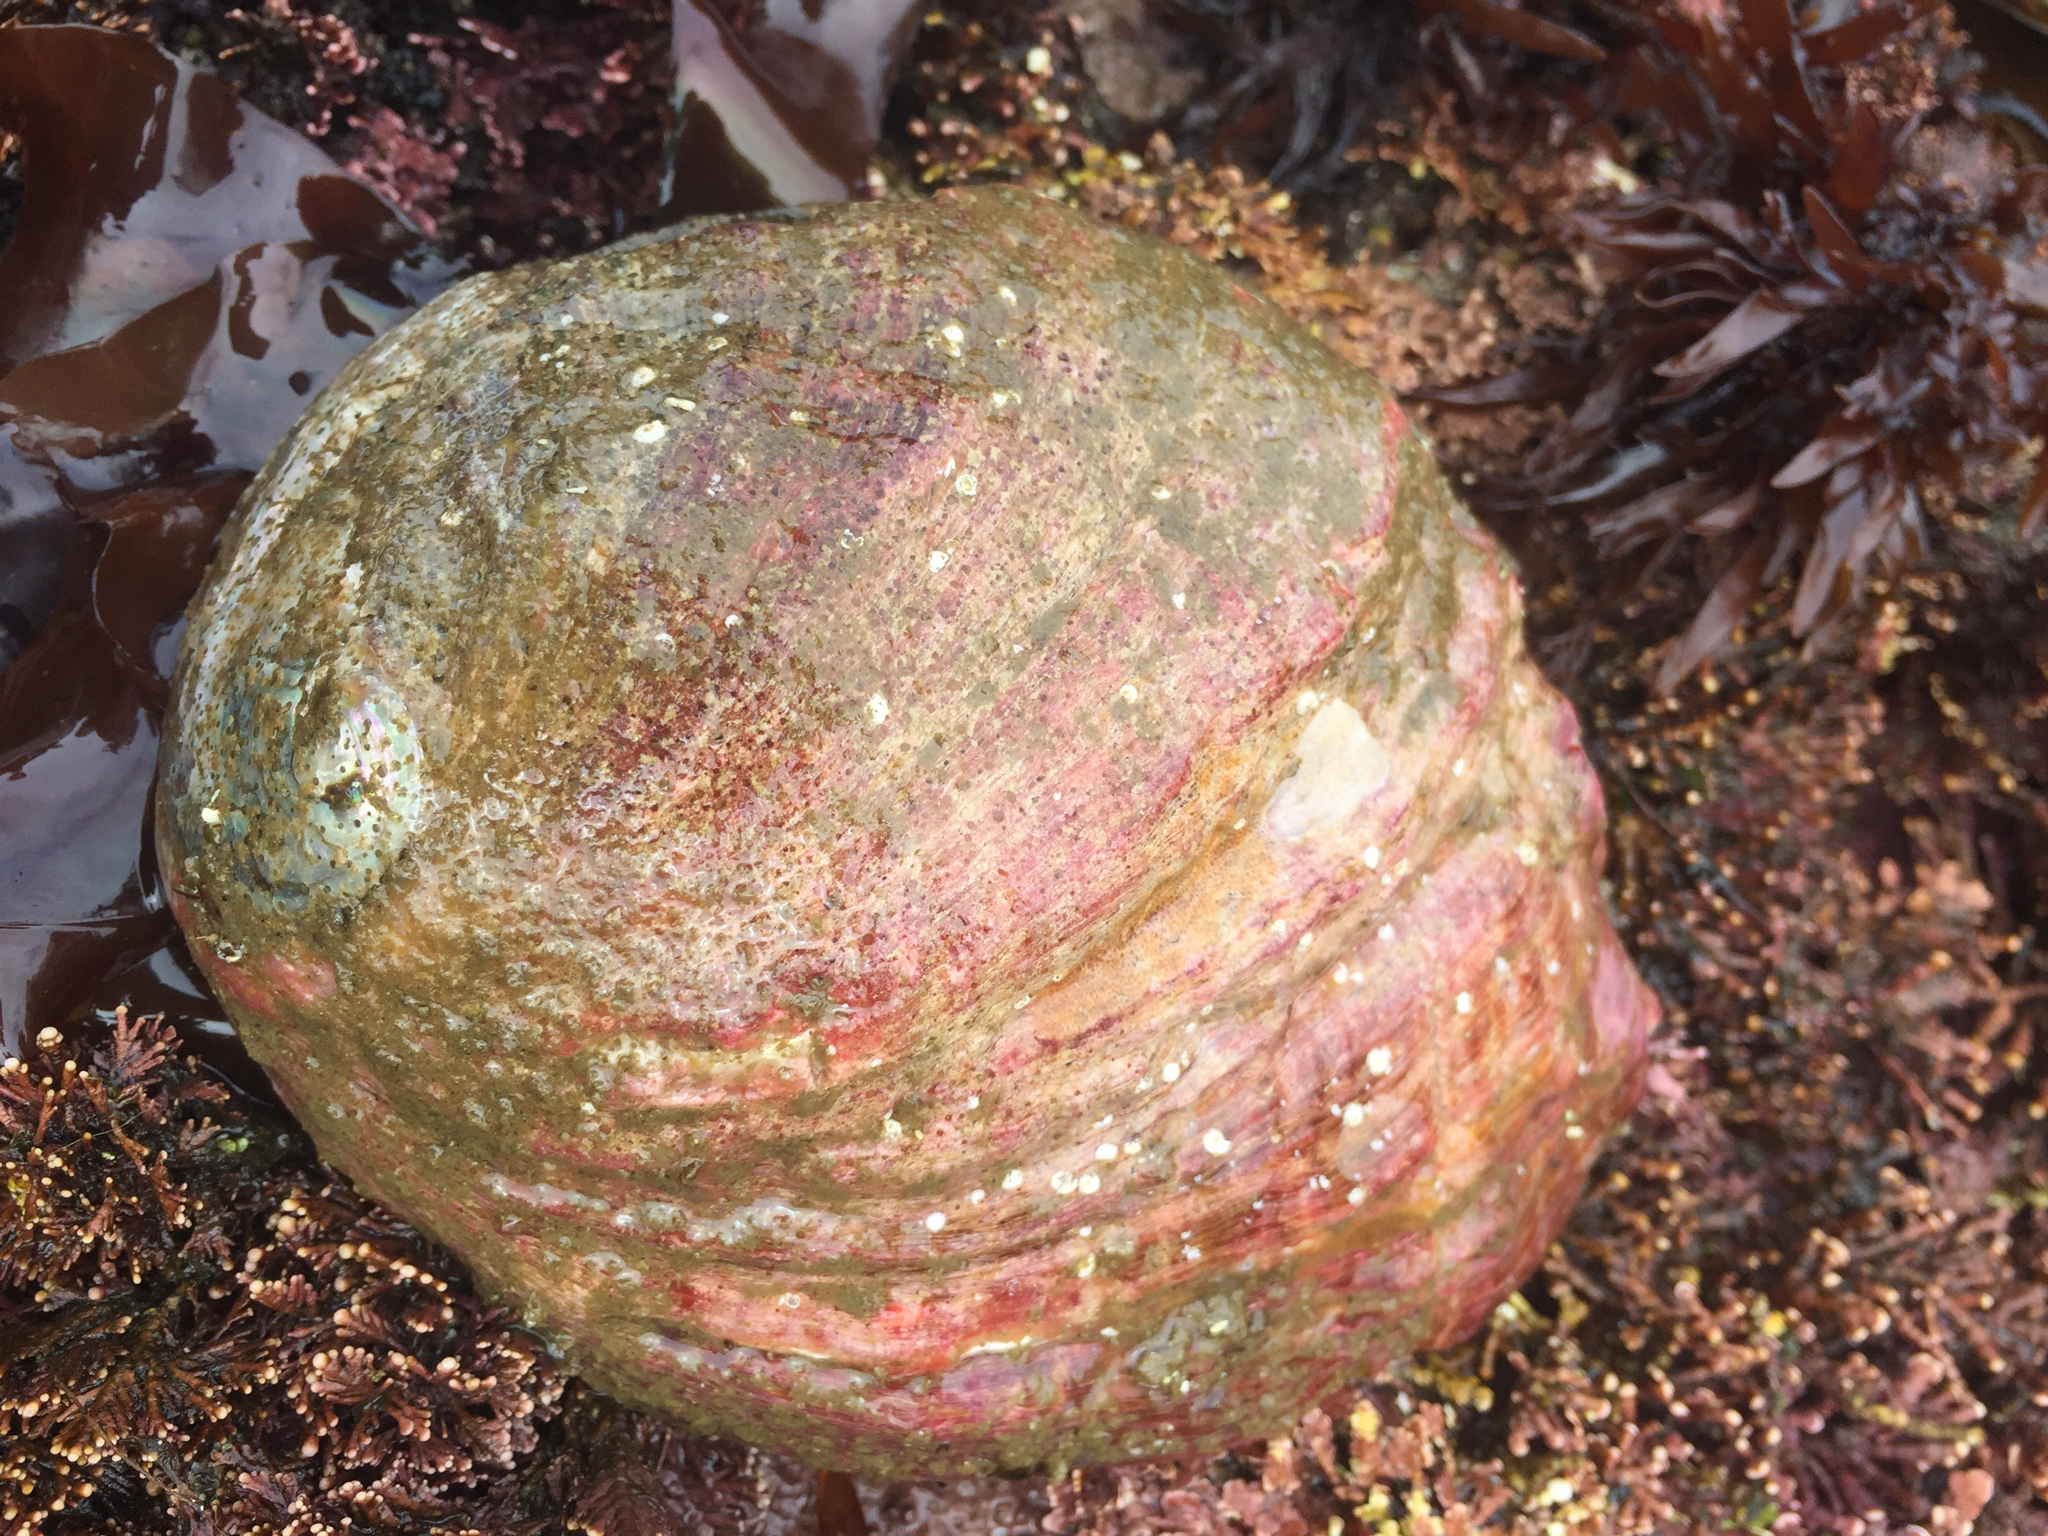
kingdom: Animalia
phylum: Mollusca
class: Gastropoda
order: Lepetellida
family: Haliotidae
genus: Haliotis
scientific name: Haliotis rufescens
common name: Red abalone
